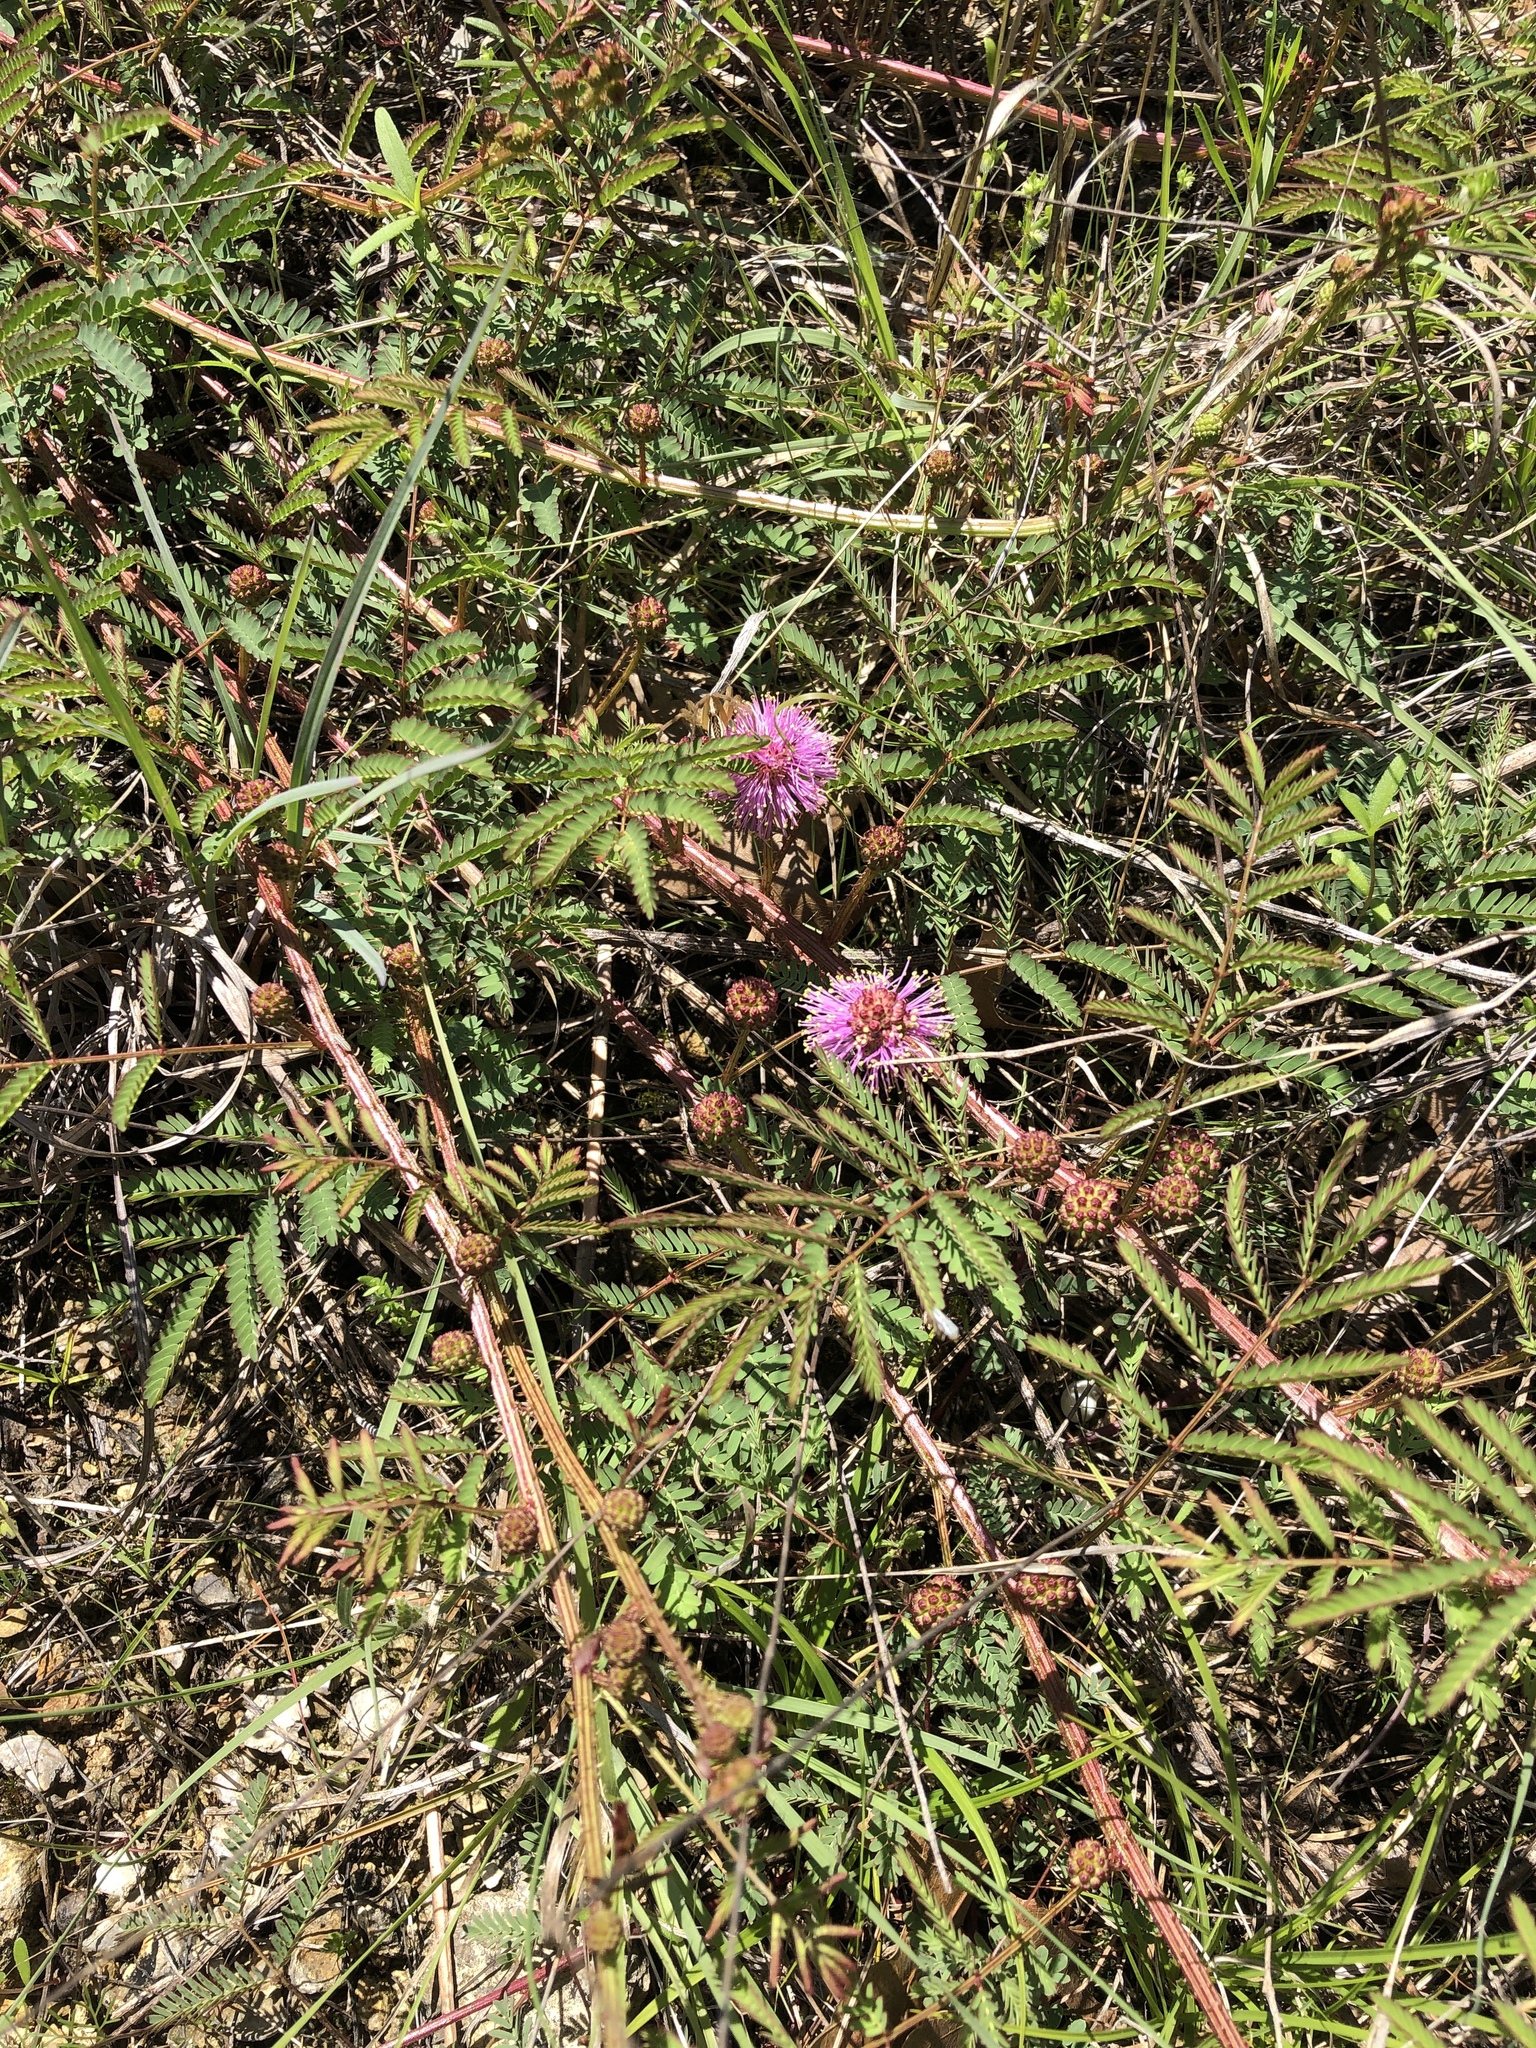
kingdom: Plantae
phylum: Tracheophyta
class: Magnoliopsida
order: Fabales
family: Fabaceae
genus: Mimosa
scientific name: Mimosa quadrivalvis
